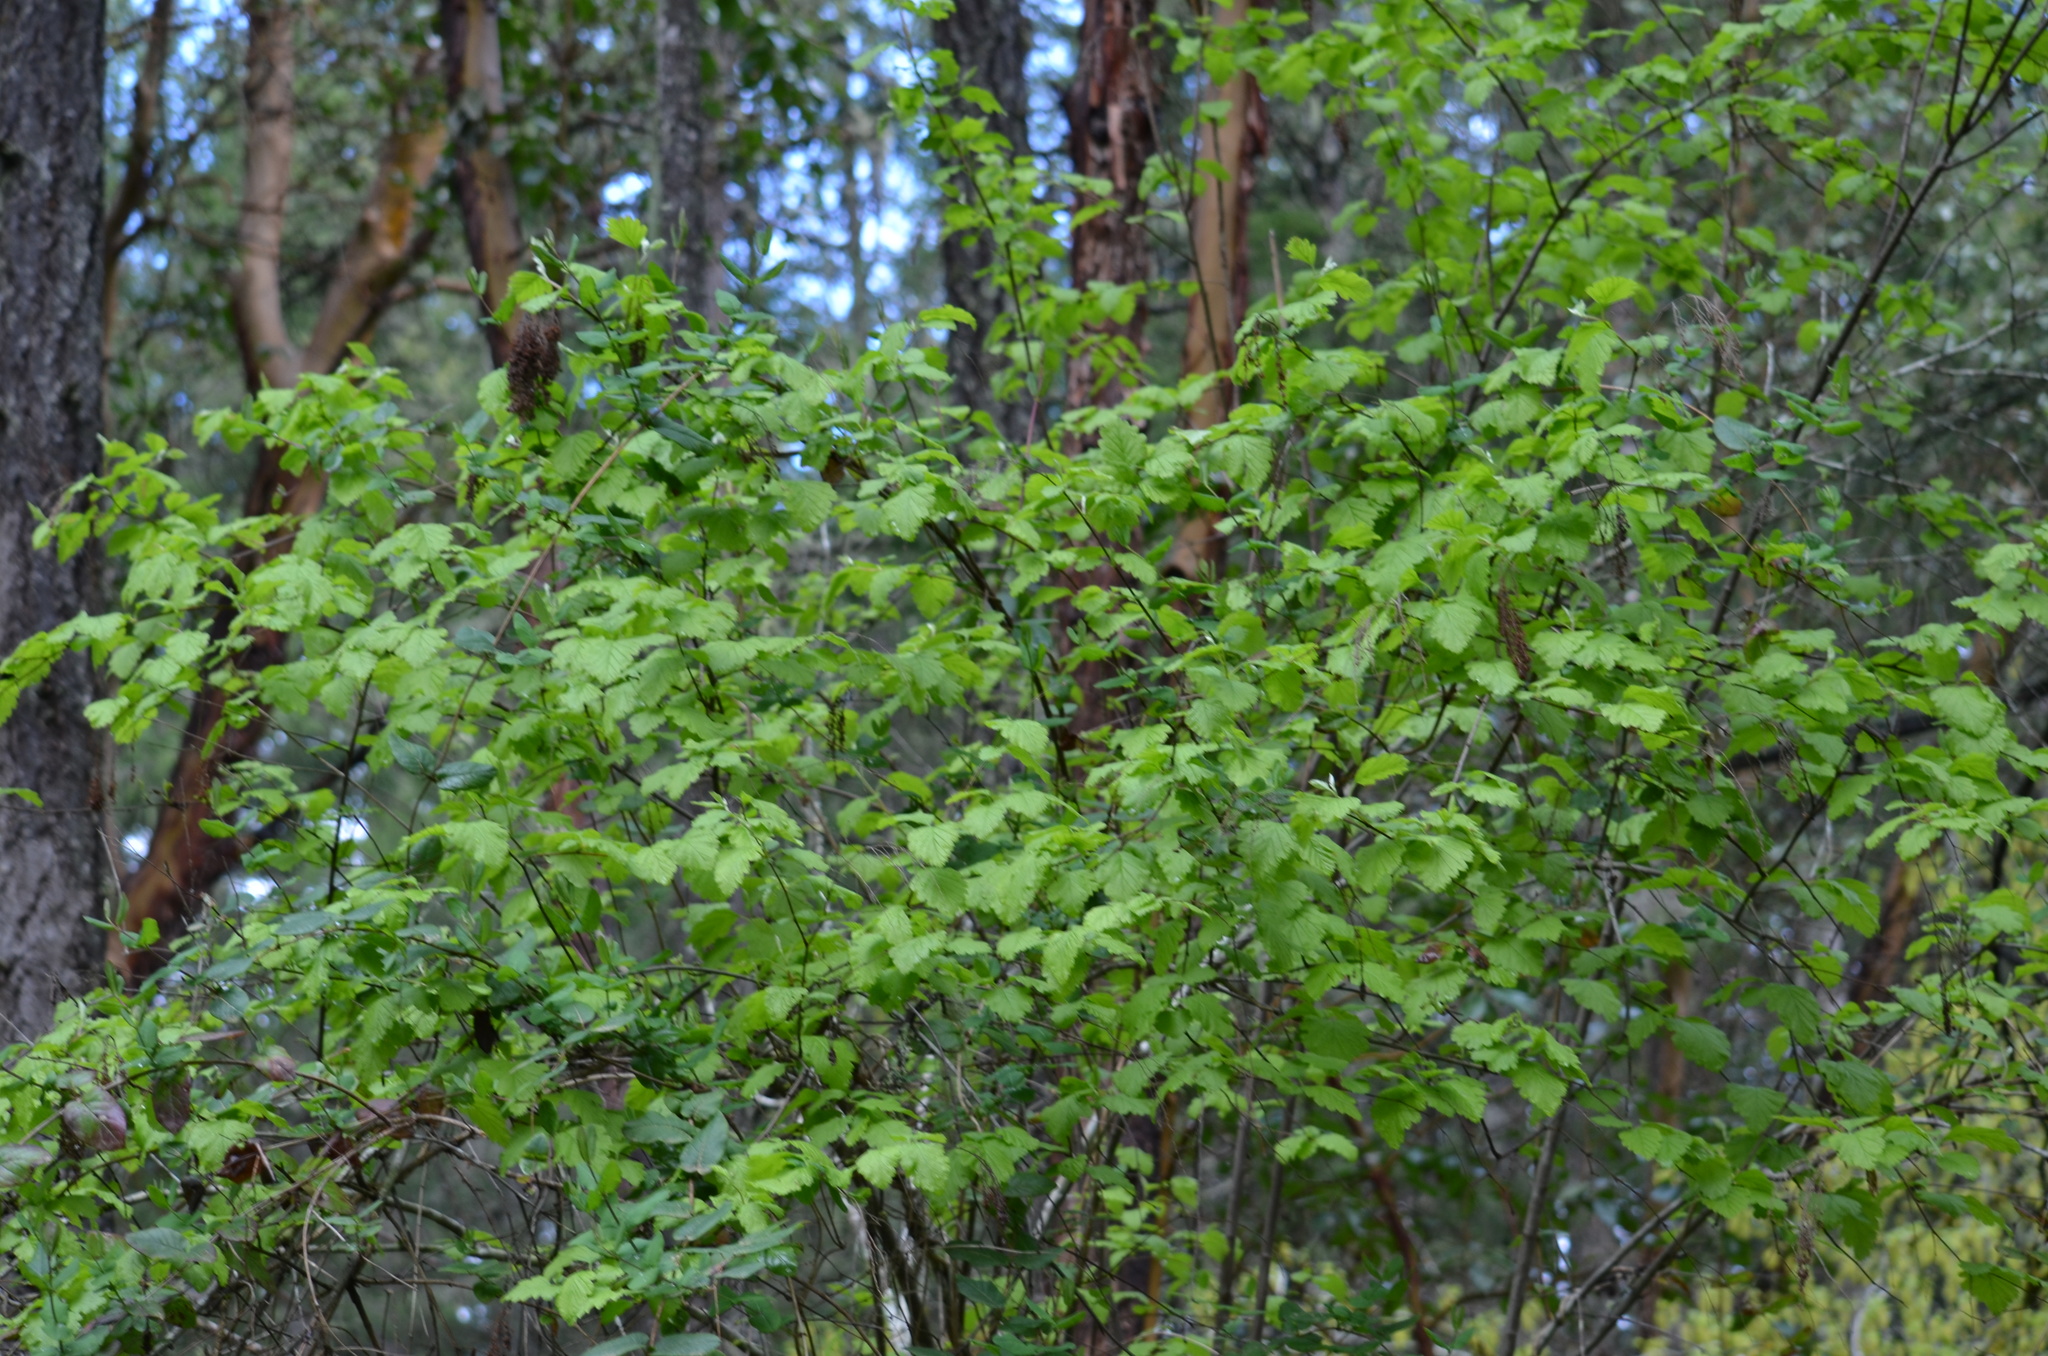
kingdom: Plantae
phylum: Tracheophyta
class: Magnoliopsida
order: Rosales
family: Rosaceae
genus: Holodiscus
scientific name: Holodiscus discolor
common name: Oceanspray
